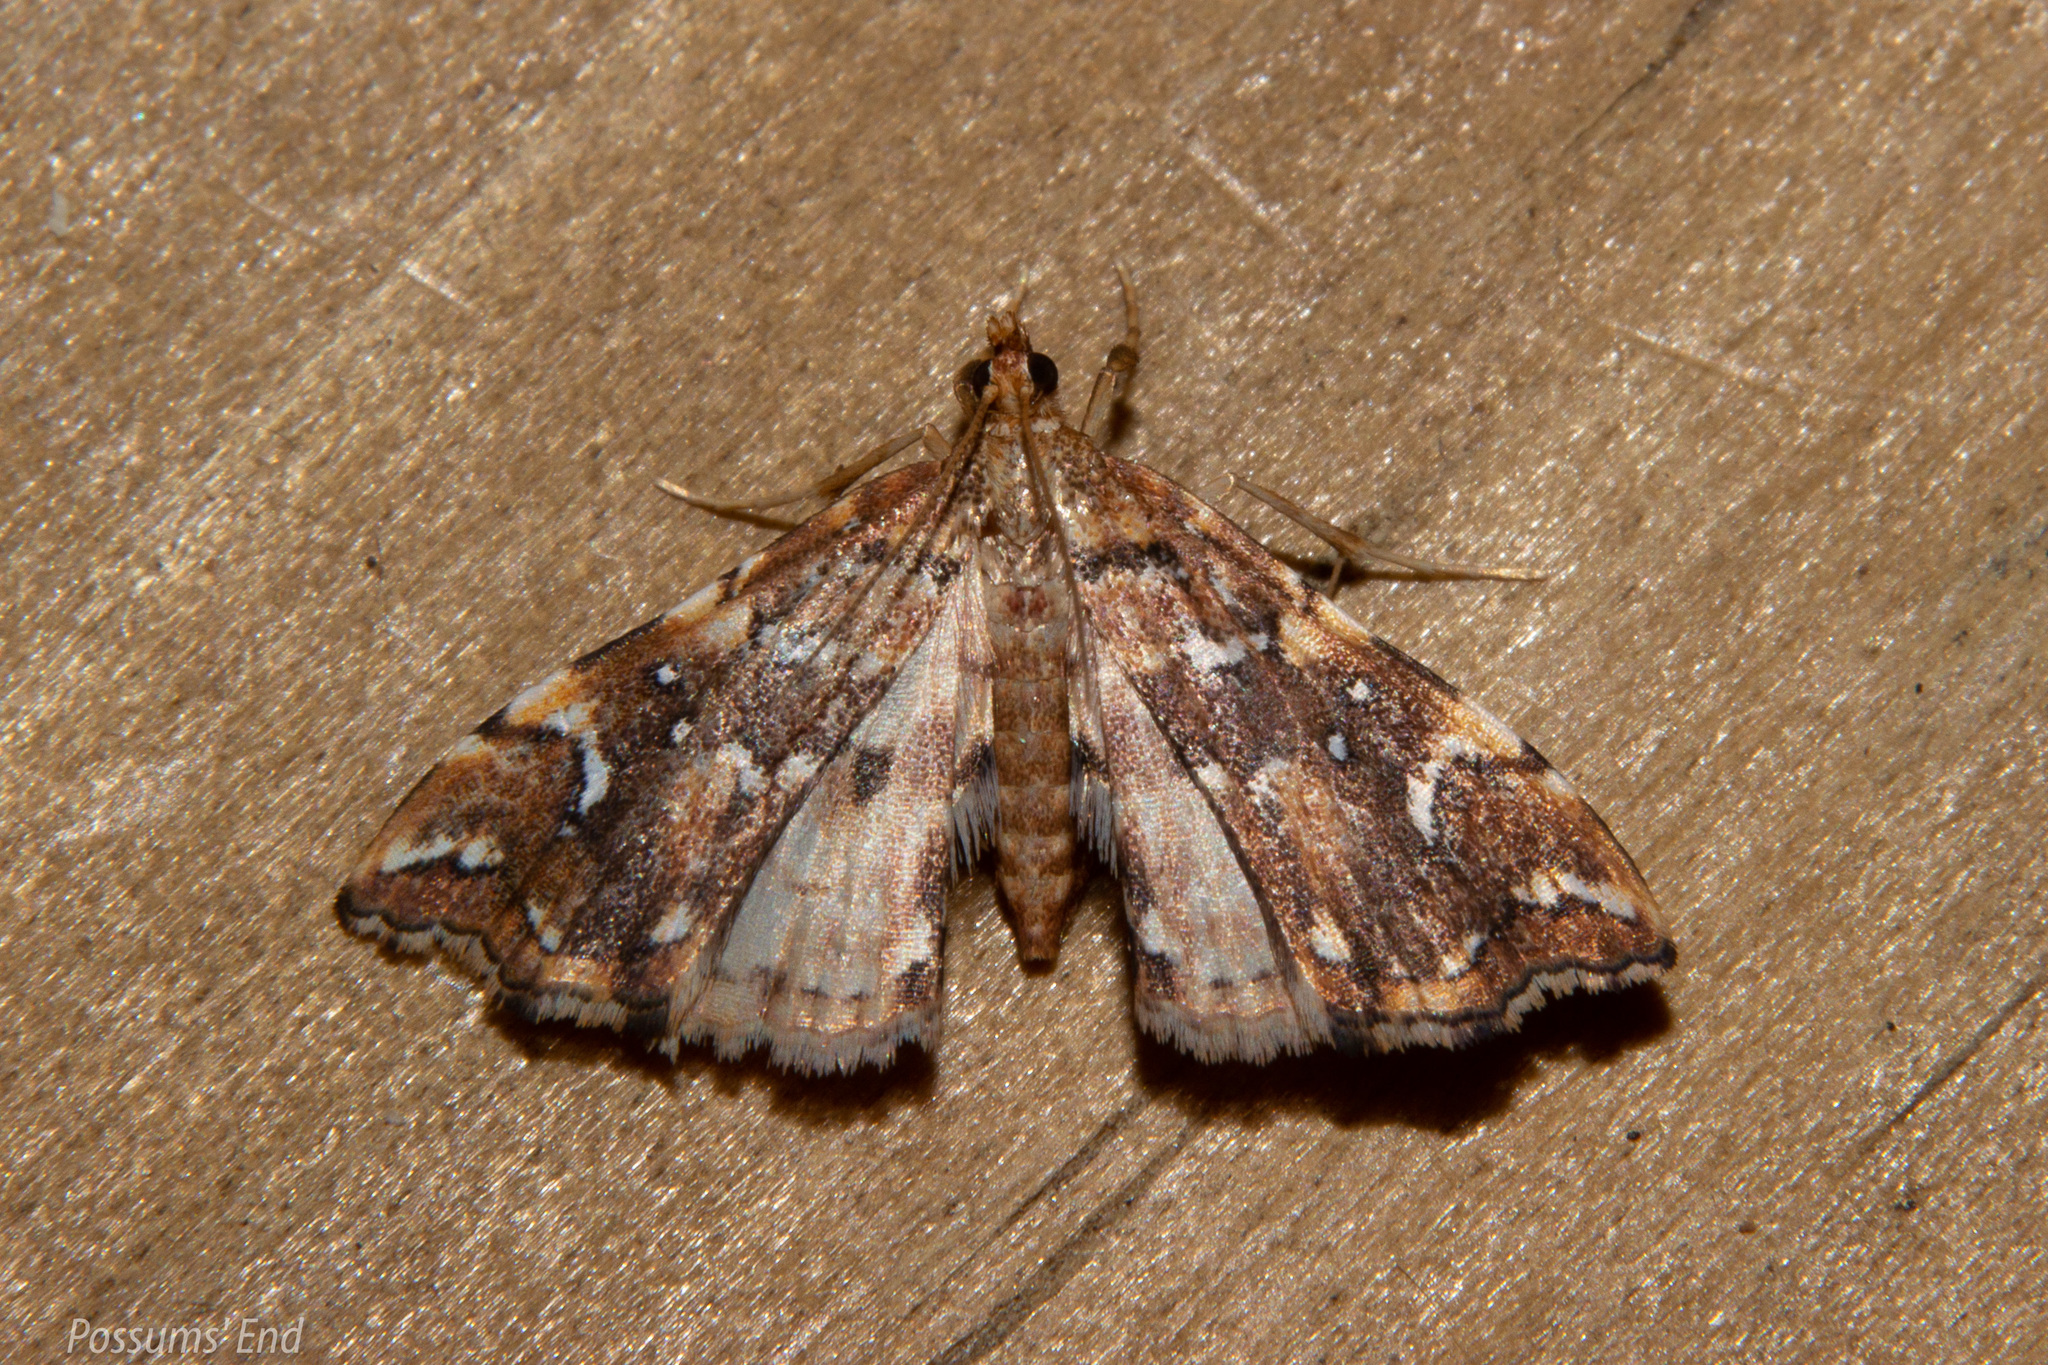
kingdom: Animalia
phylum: Arthropoda
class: Insecta
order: Lepidoptera
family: Pyralidae
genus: Musotima
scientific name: Musotima nitidalis
